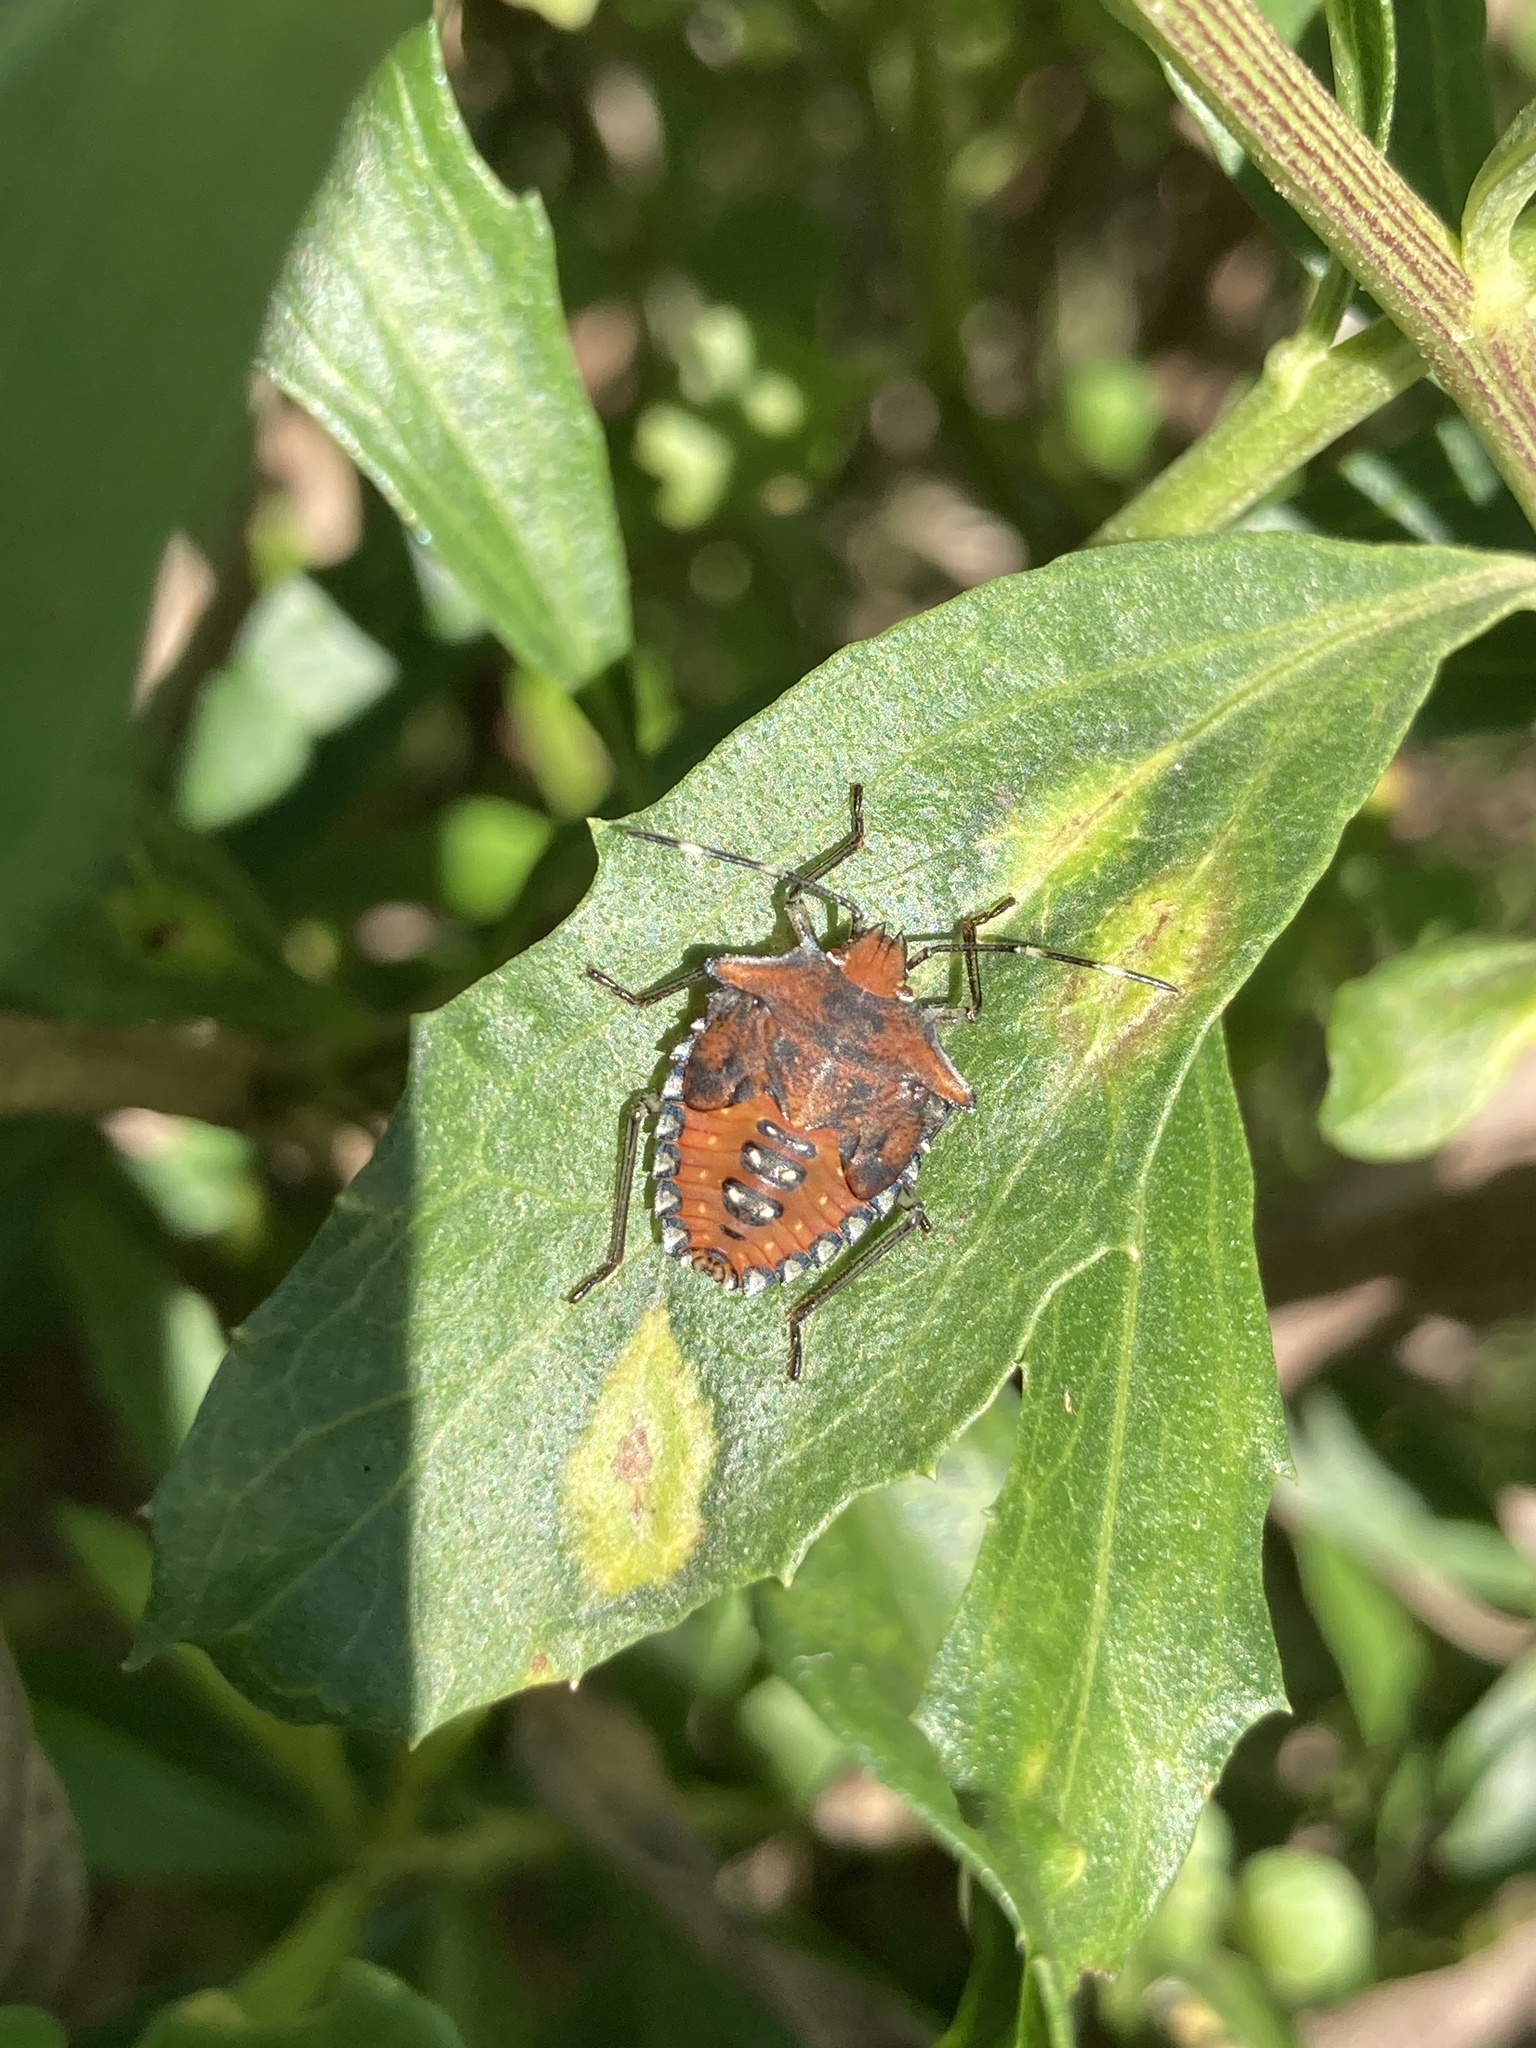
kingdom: Animalia
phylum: Arthropoda
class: Insecta
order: Hemiptera
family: Pentatomidae
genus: Arvelius
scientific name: Arvelius albopunctatus
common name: Tomato stink bug
